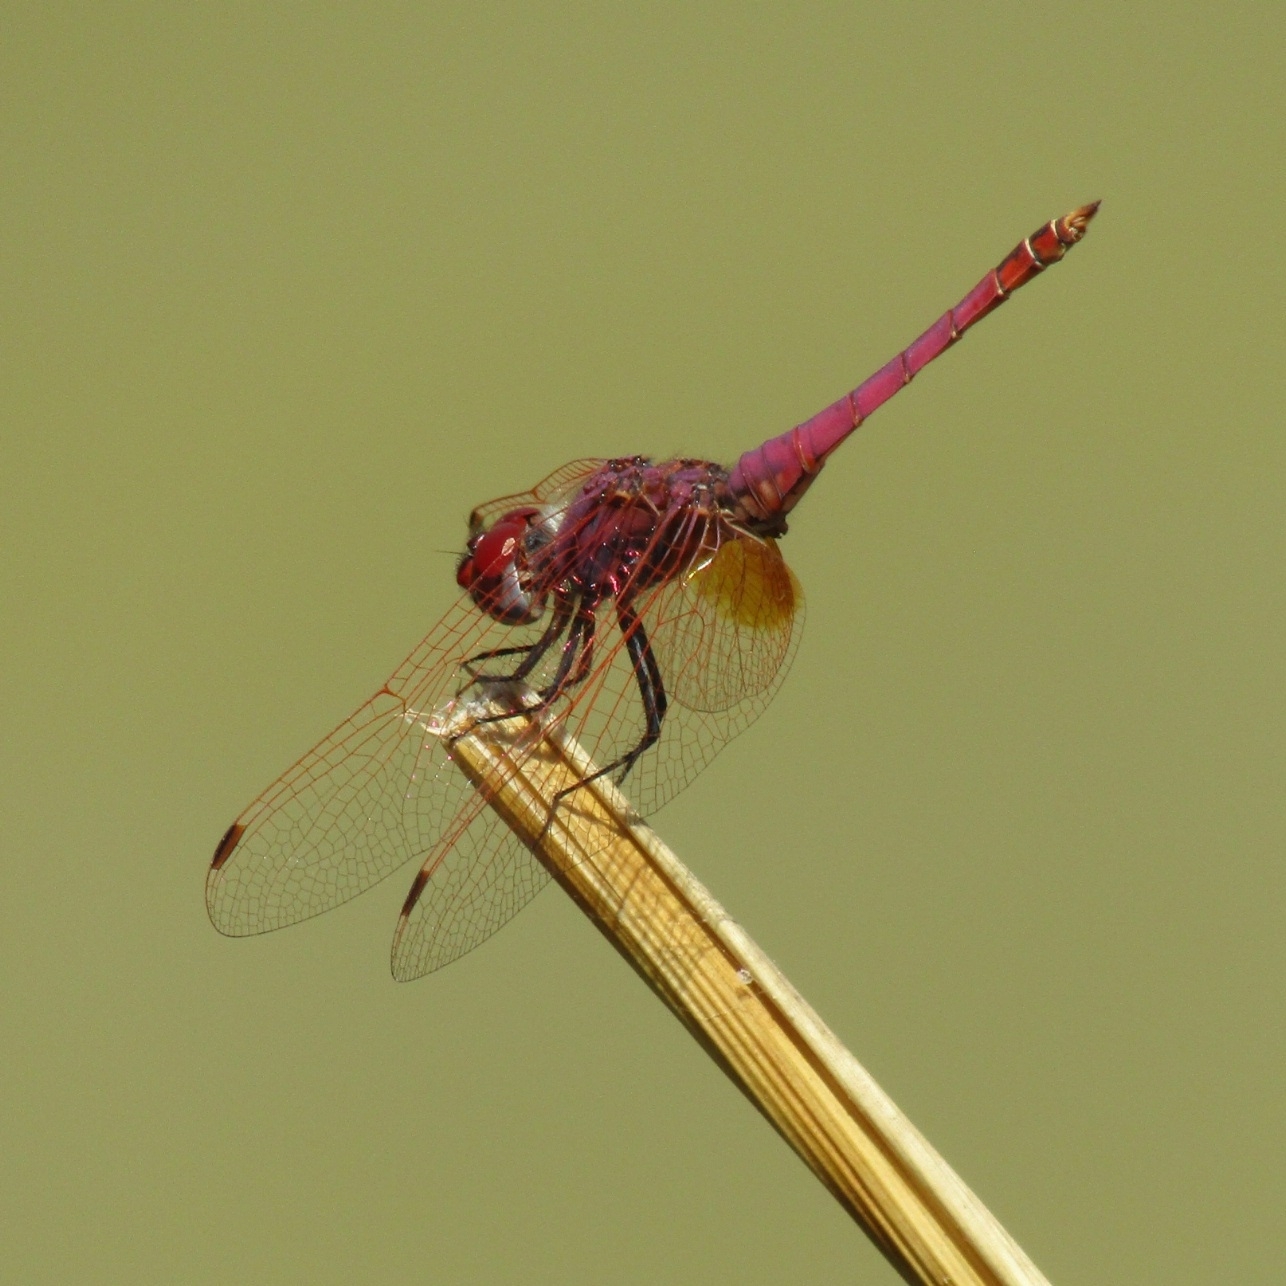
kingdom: Animalia
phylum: Arthropoda
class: Insecta
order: Odonata
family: Libellulidae
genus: Trithemis
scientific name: Trithemis annulata
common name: Violet dropwing
